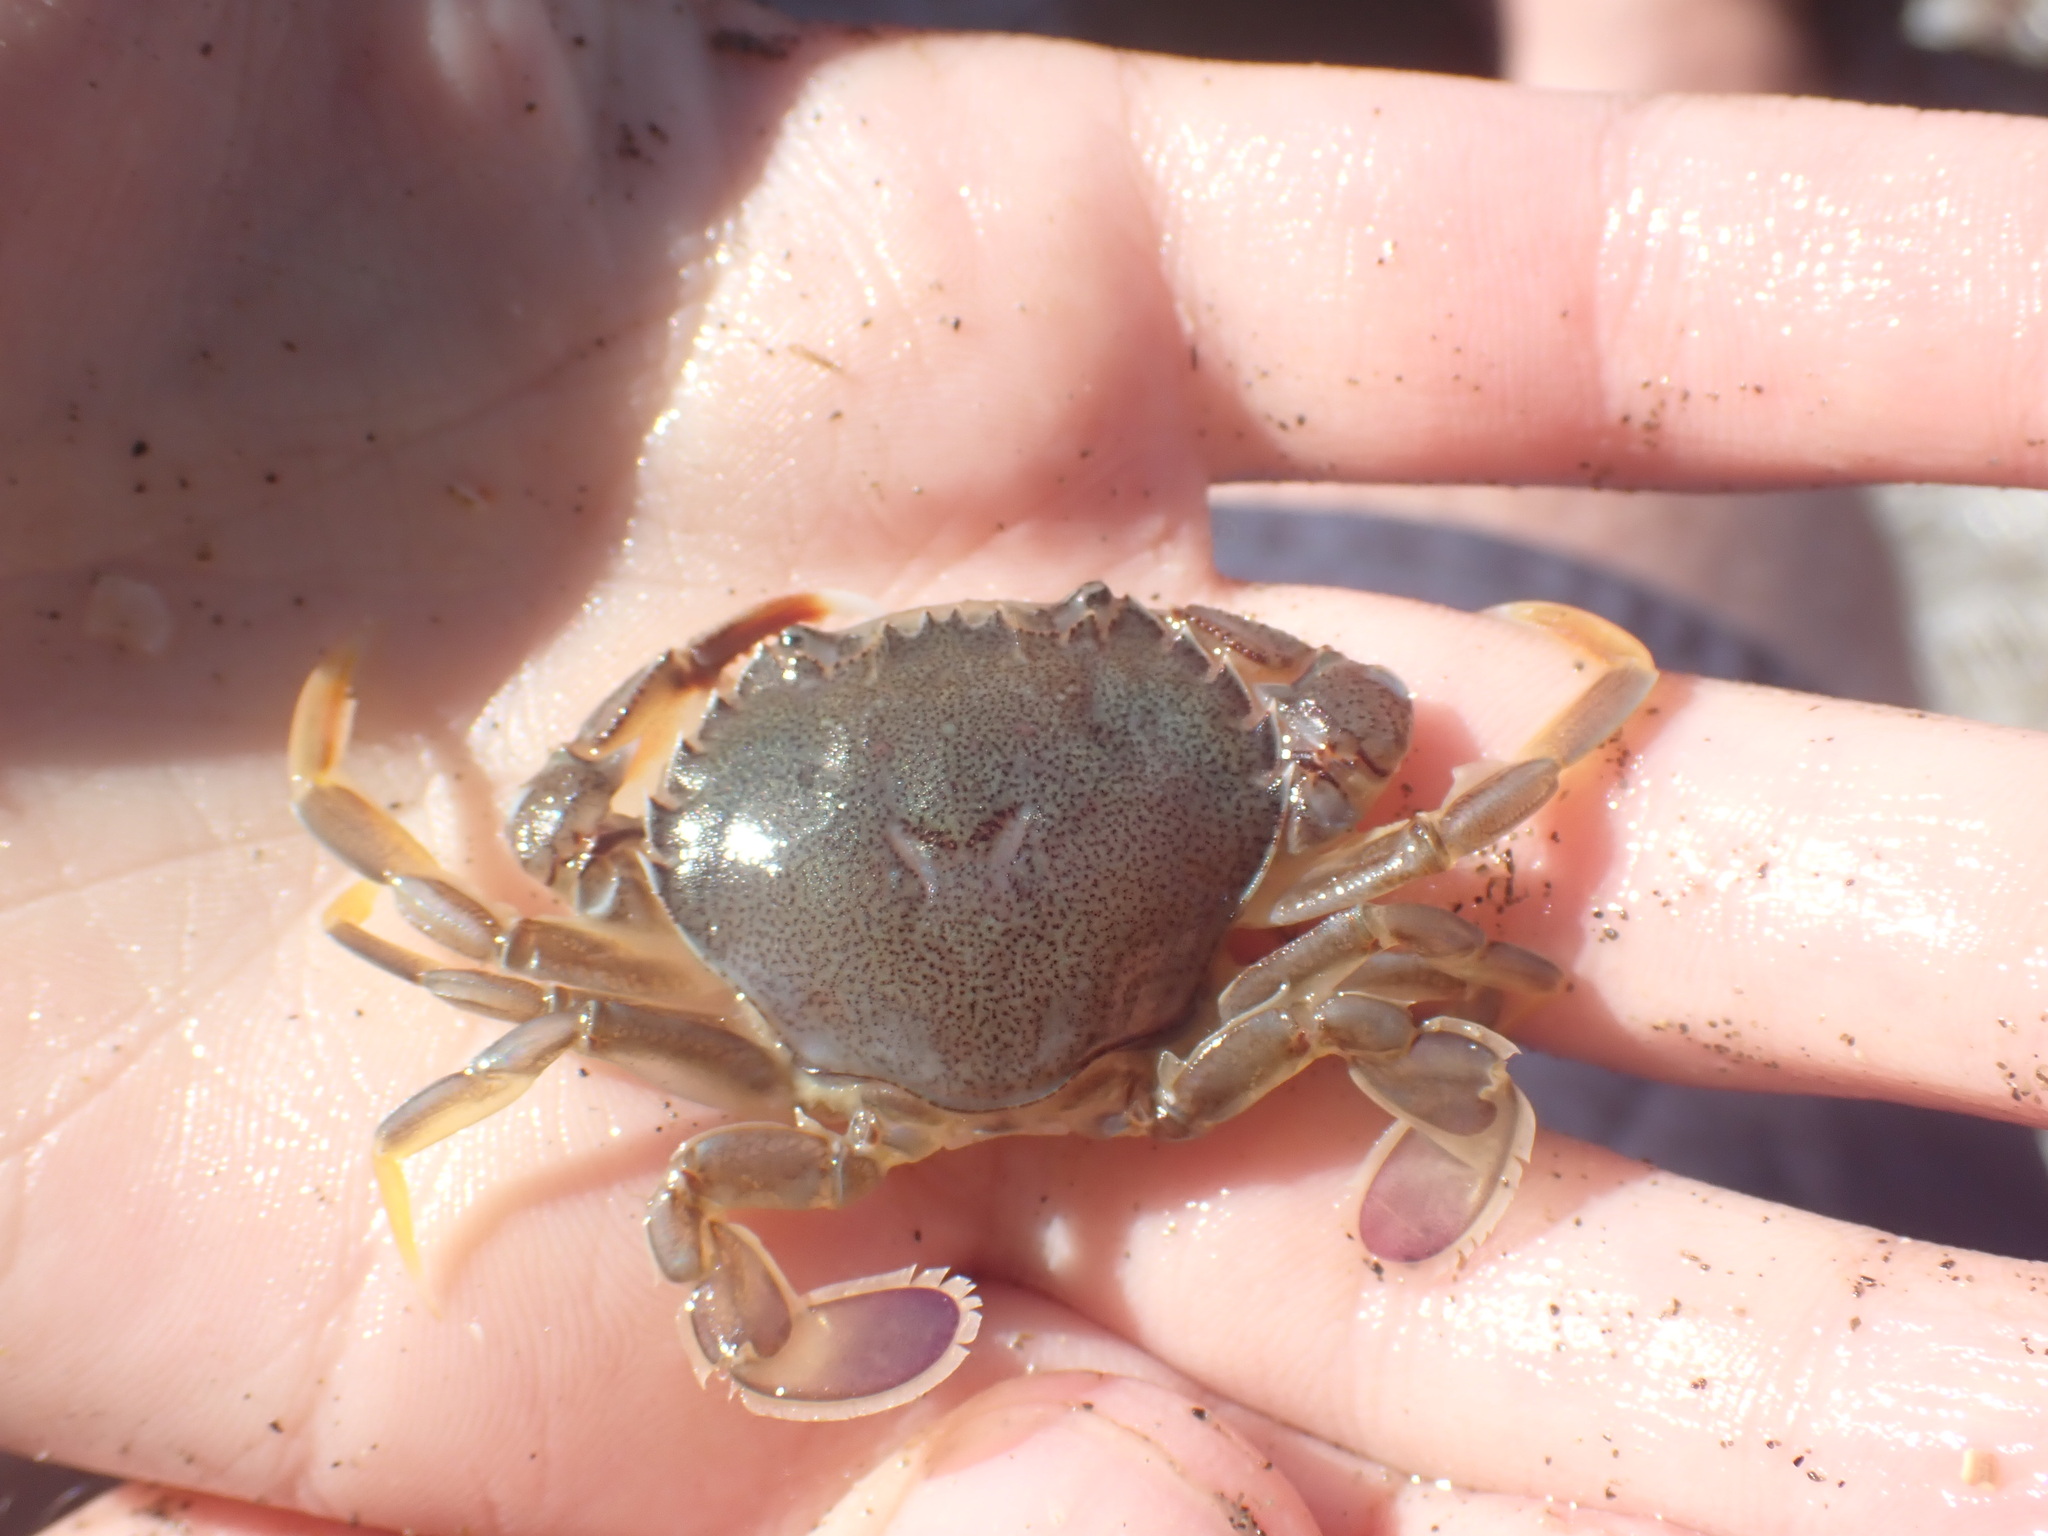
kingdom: Animalia
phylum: Arthropoda
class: Malacostraca
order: Decapoda
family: Ovalipidae
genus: Ovalipes
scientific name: Ovalipes catharus
